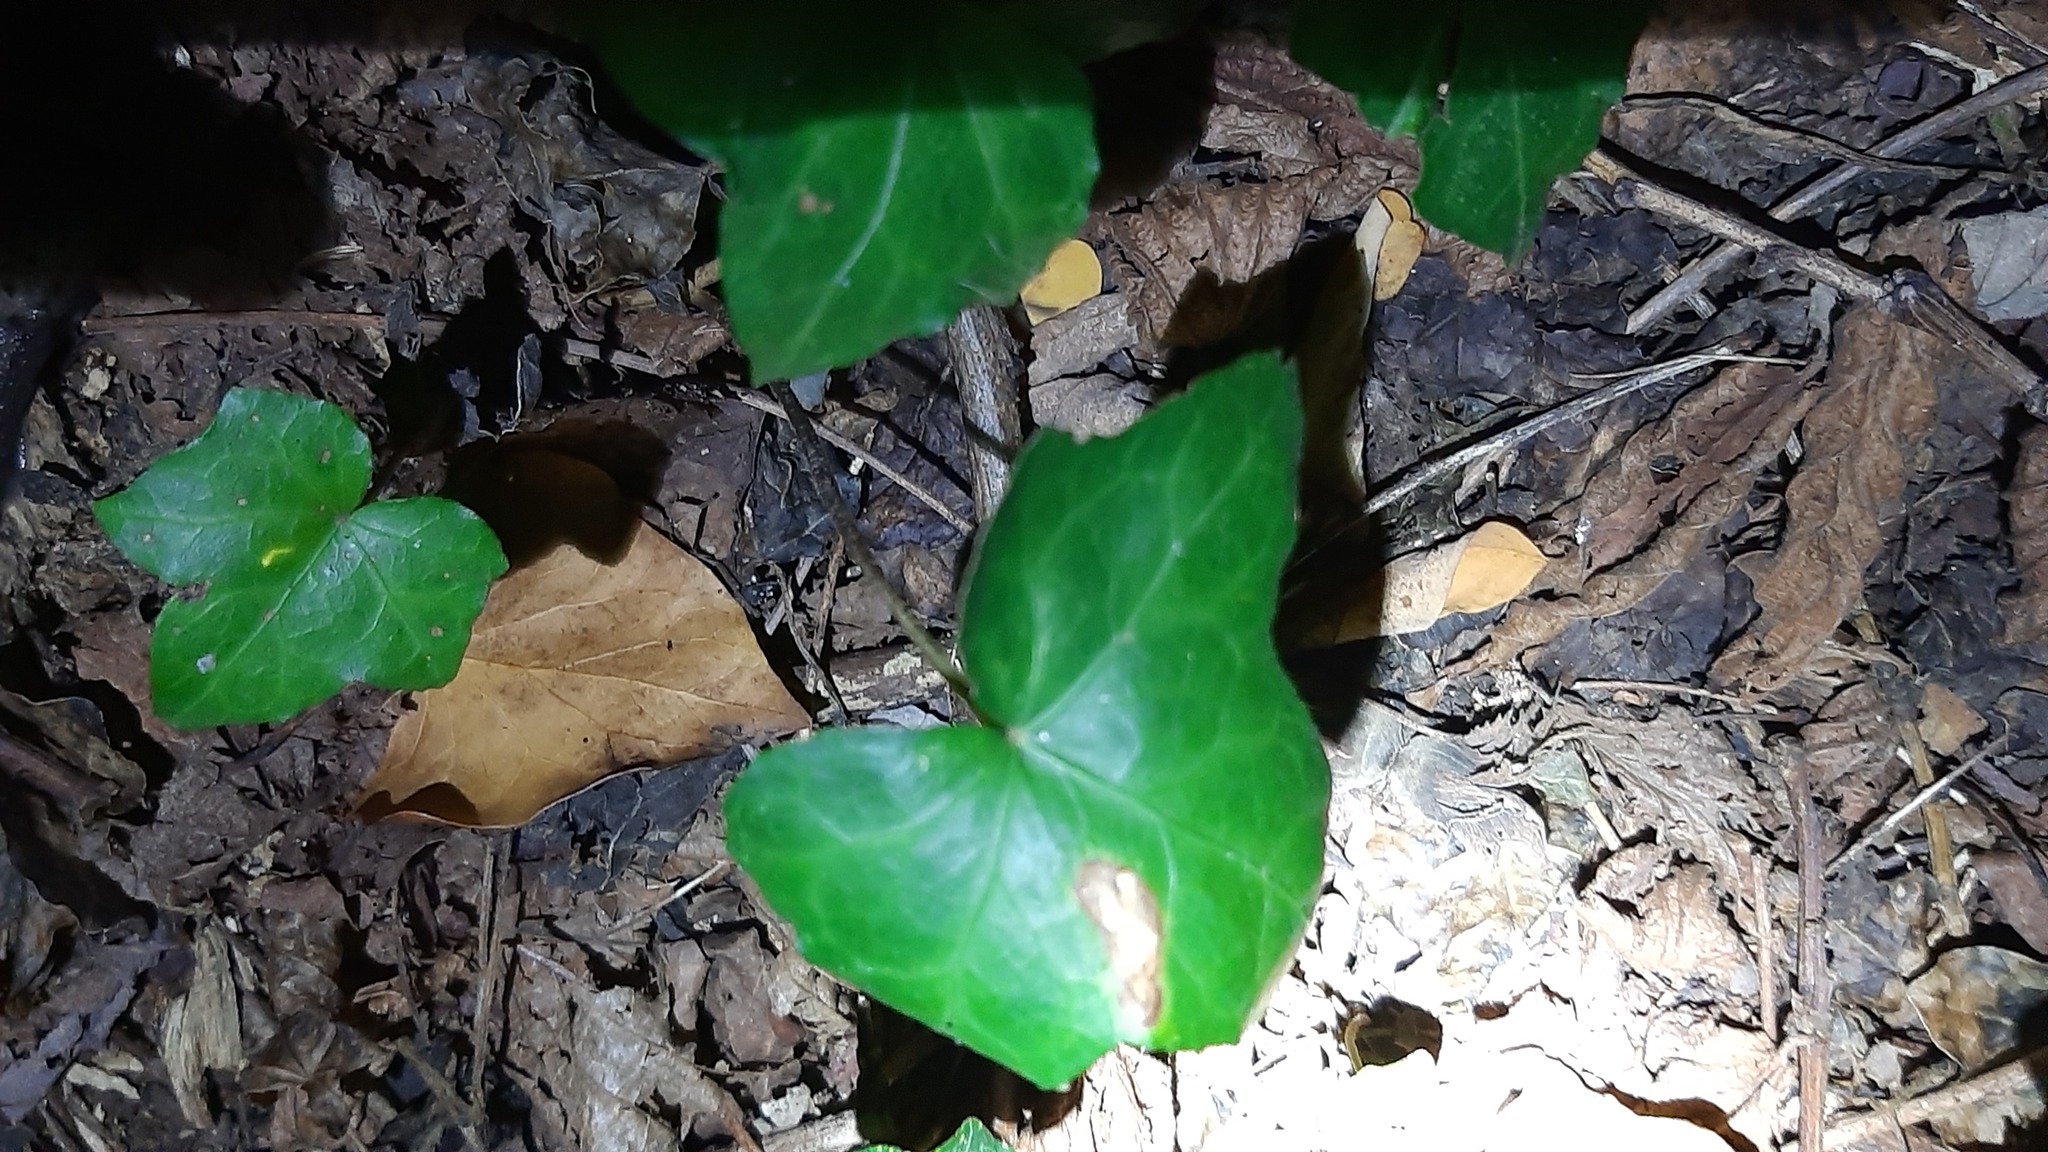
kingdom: Plantae
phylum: Tracheophyta
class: Magnoliopsida
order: Apiales
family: Araliaceae
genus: Hedera
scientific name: Hedera helix
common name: Ivy
